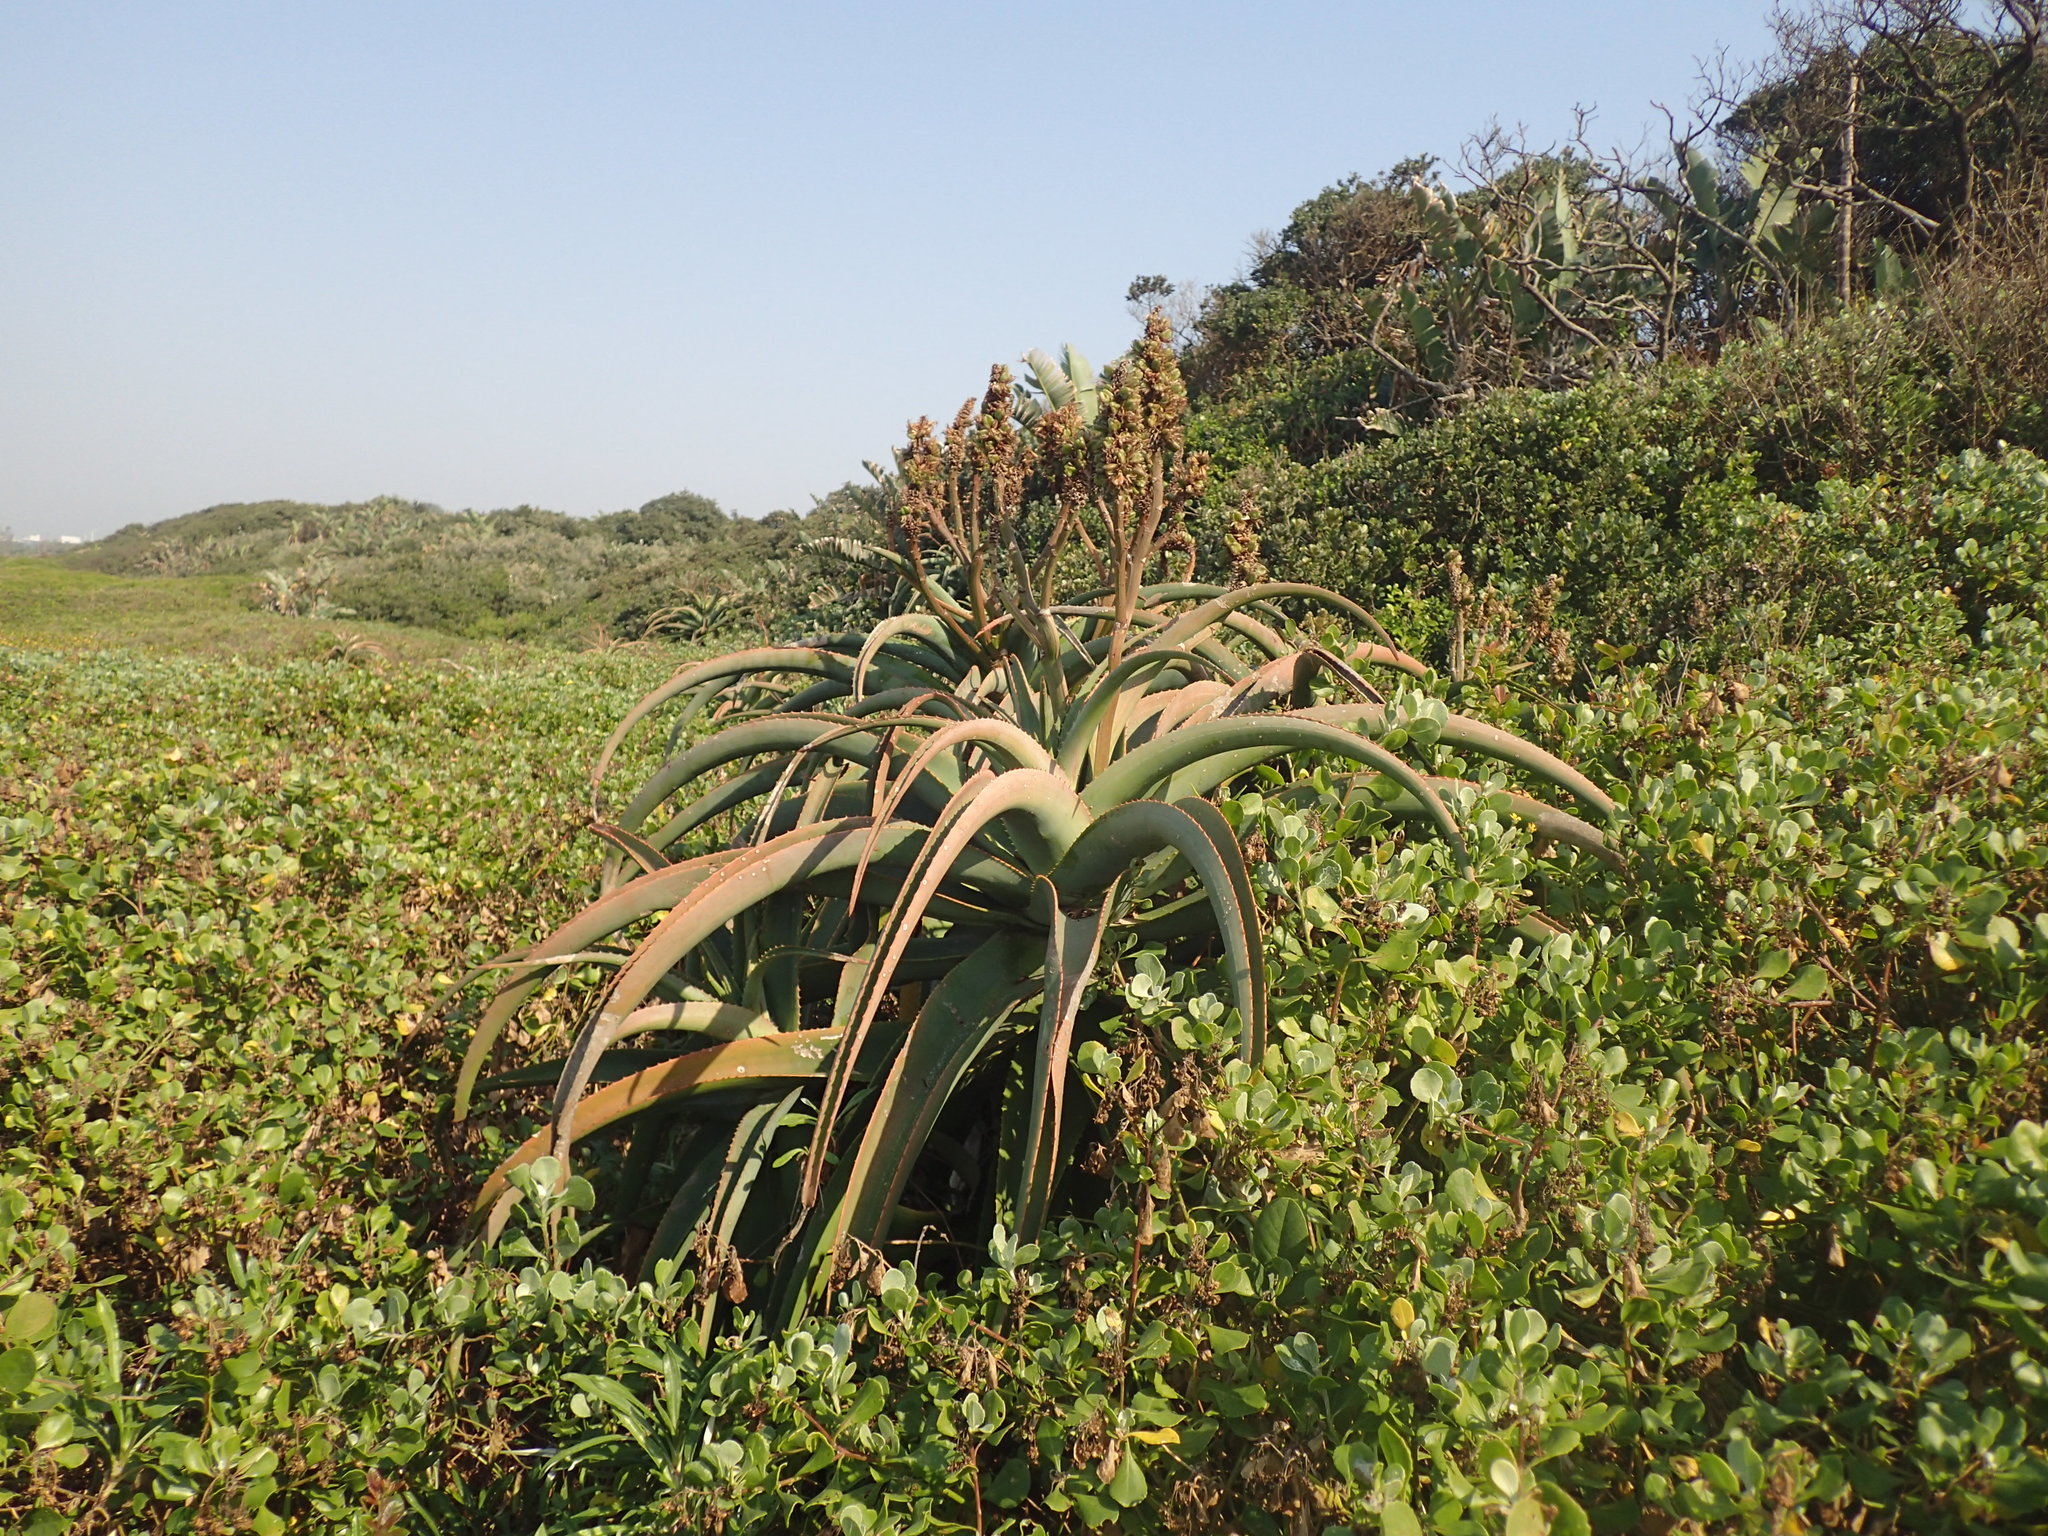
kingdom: Plantae
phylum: Tracheophyta
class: Liliopsida
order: Asparagales
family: Asphodelaceae
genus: Aloe
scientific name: Aloe thraskii
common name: Coast aloe
